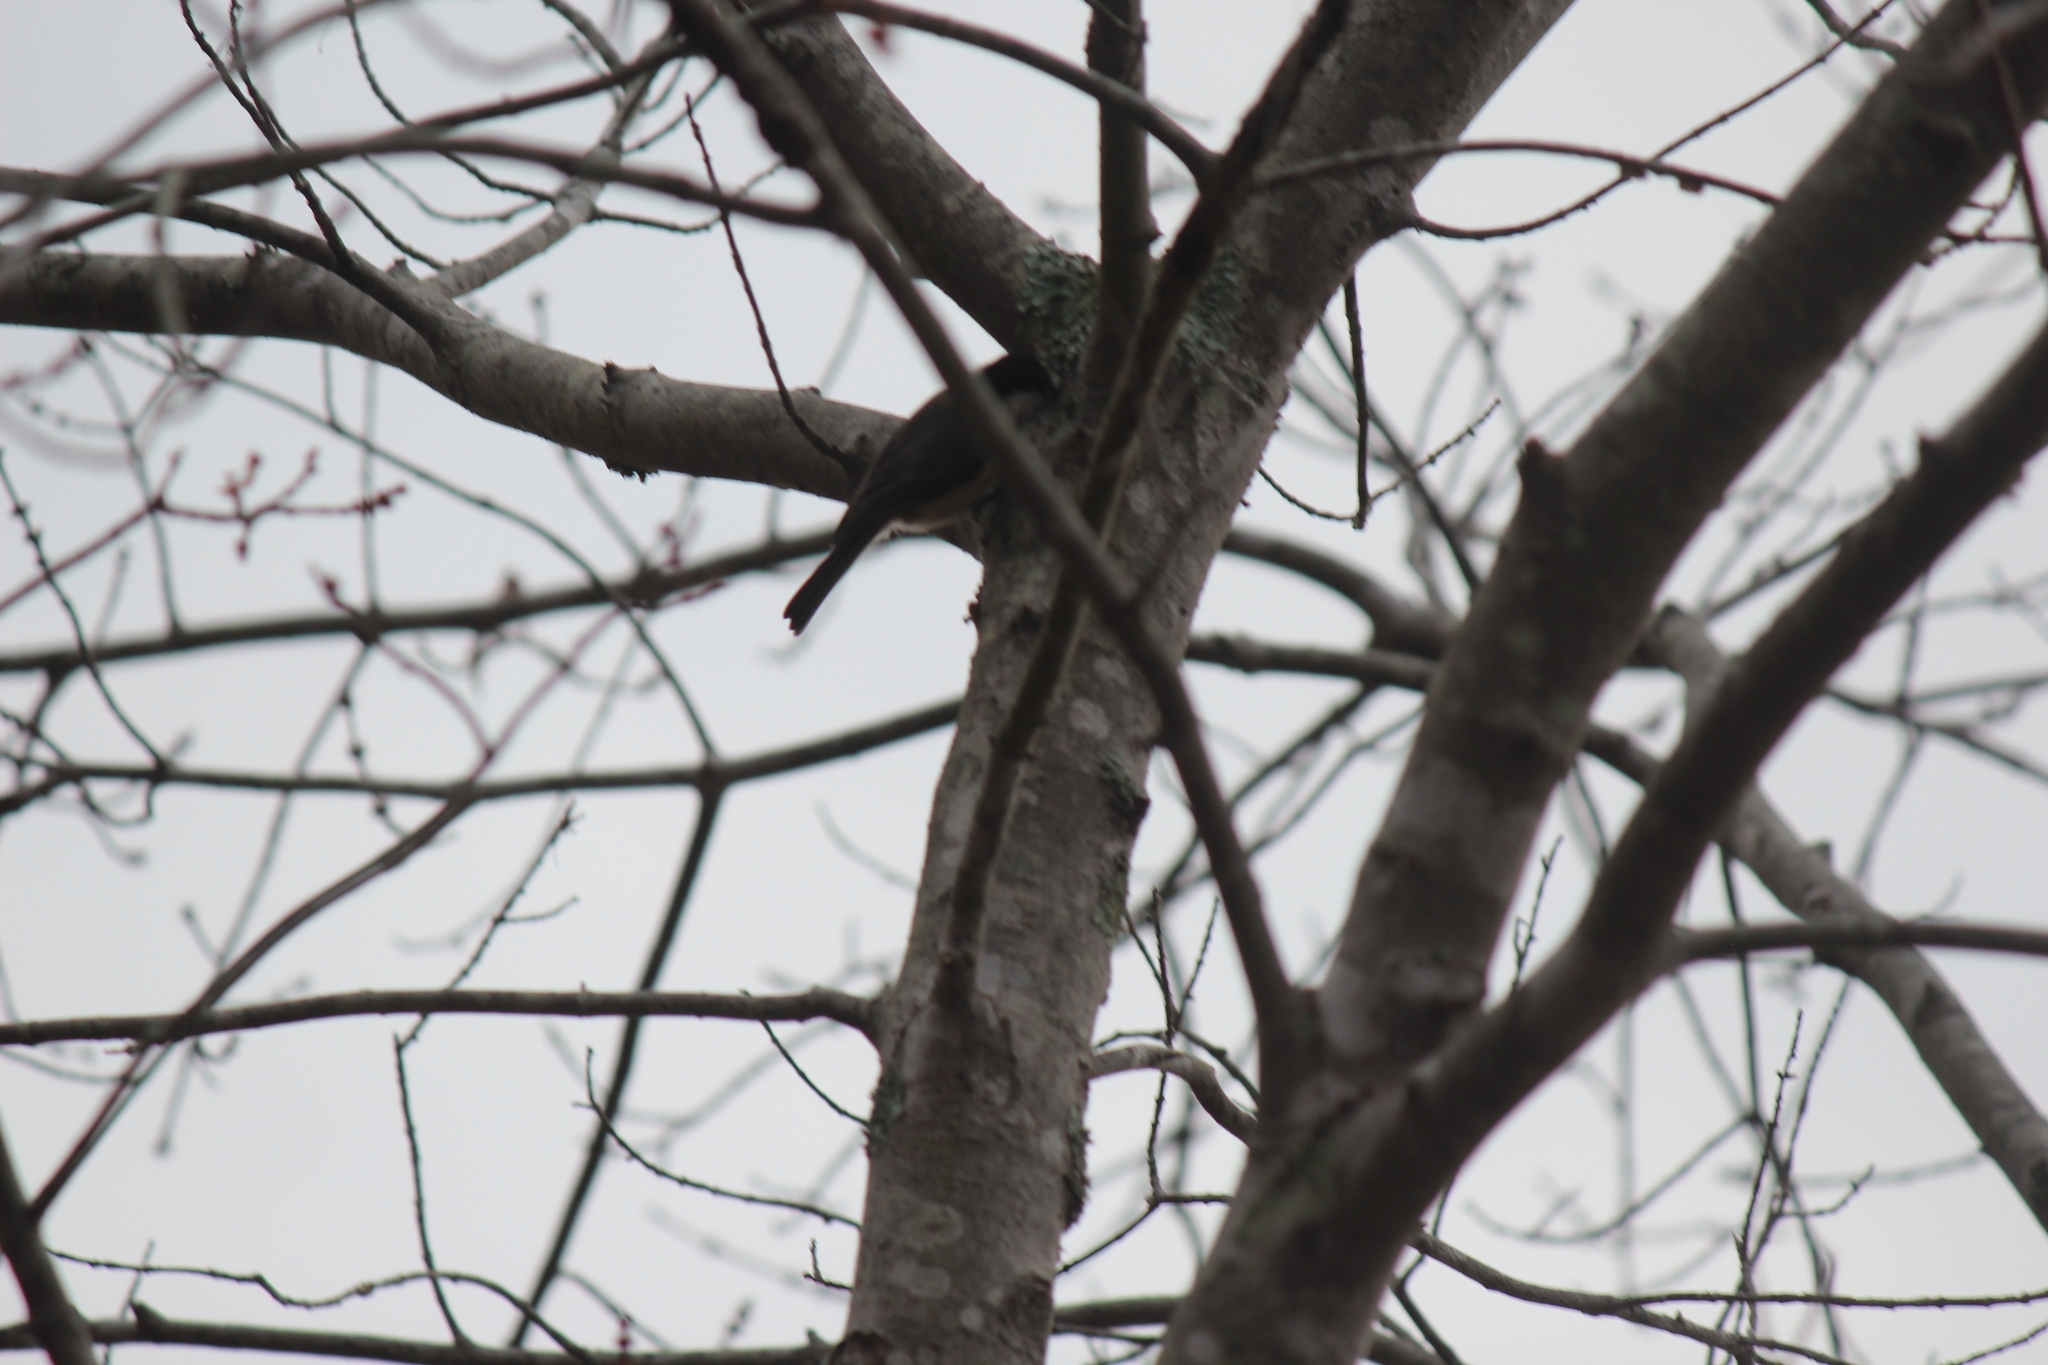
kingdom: Animalia
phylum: Chordata
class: Aves
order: Passeriformes
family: Paridae
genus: Poecile
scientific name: Poecile carolinensis
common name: Carolina chickadee
